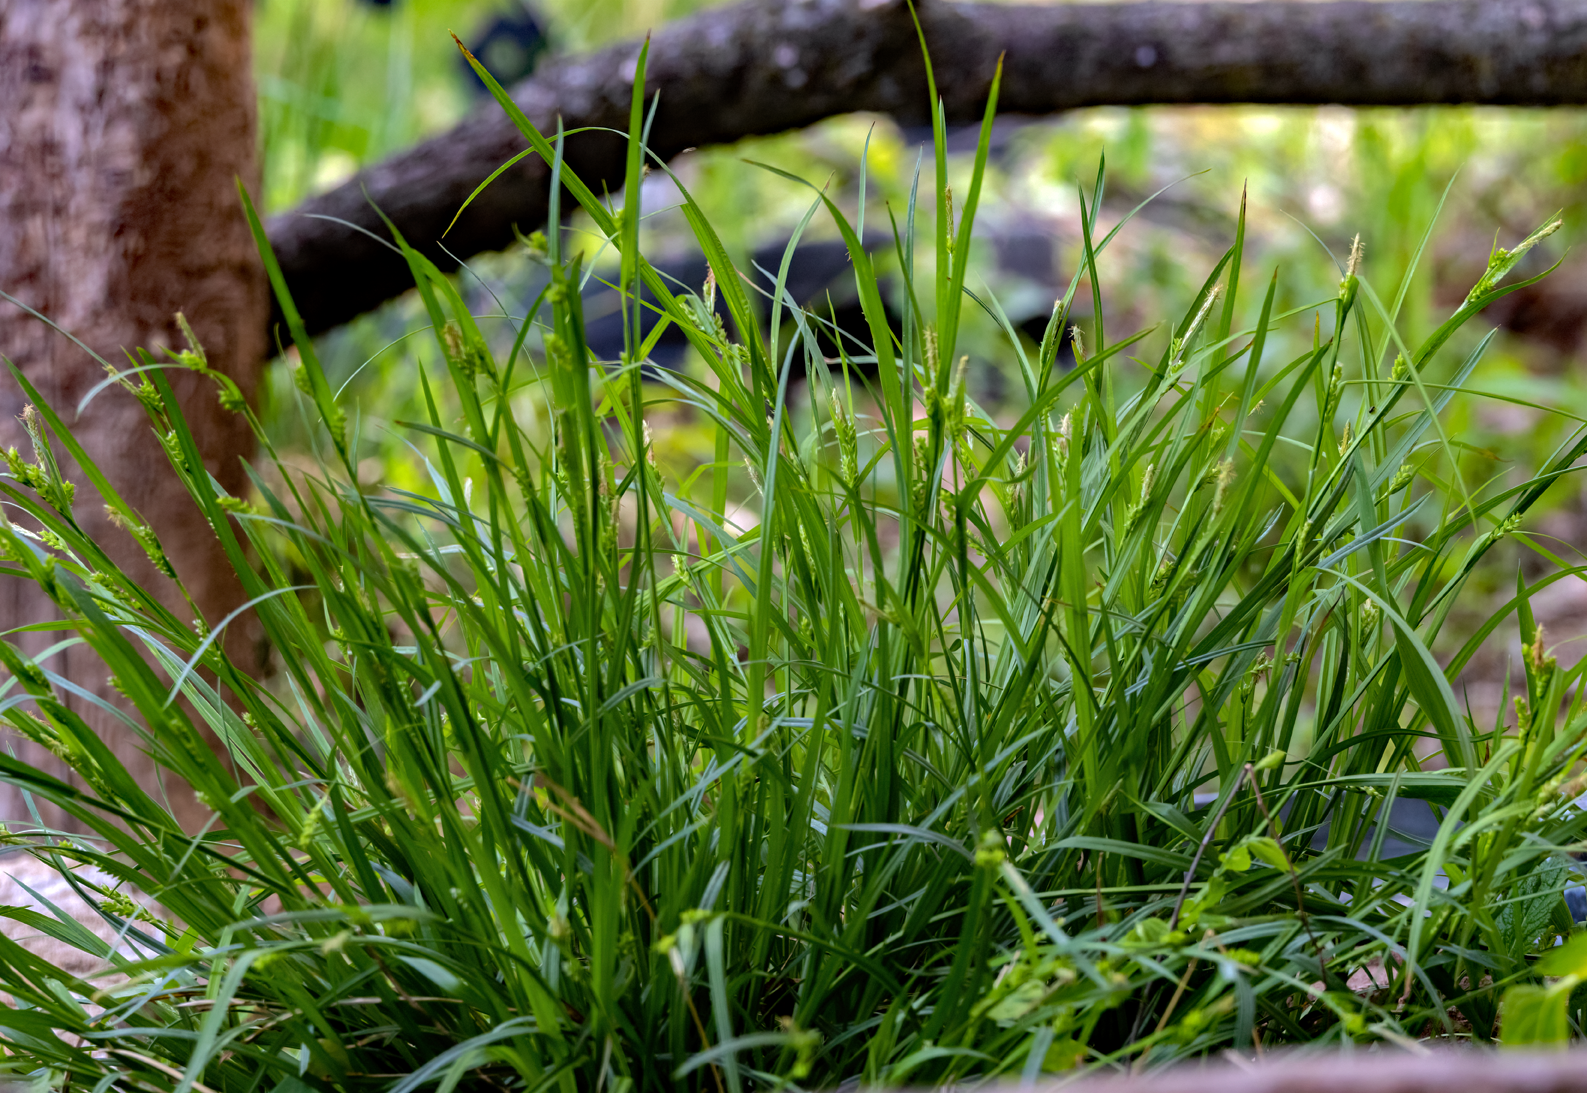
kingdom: Plantae
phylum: Tracheophyta
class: Liliopsida
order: Poales
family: Cyperaceae
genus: Carex
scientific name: Carex davisii
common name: Davis' sedge
